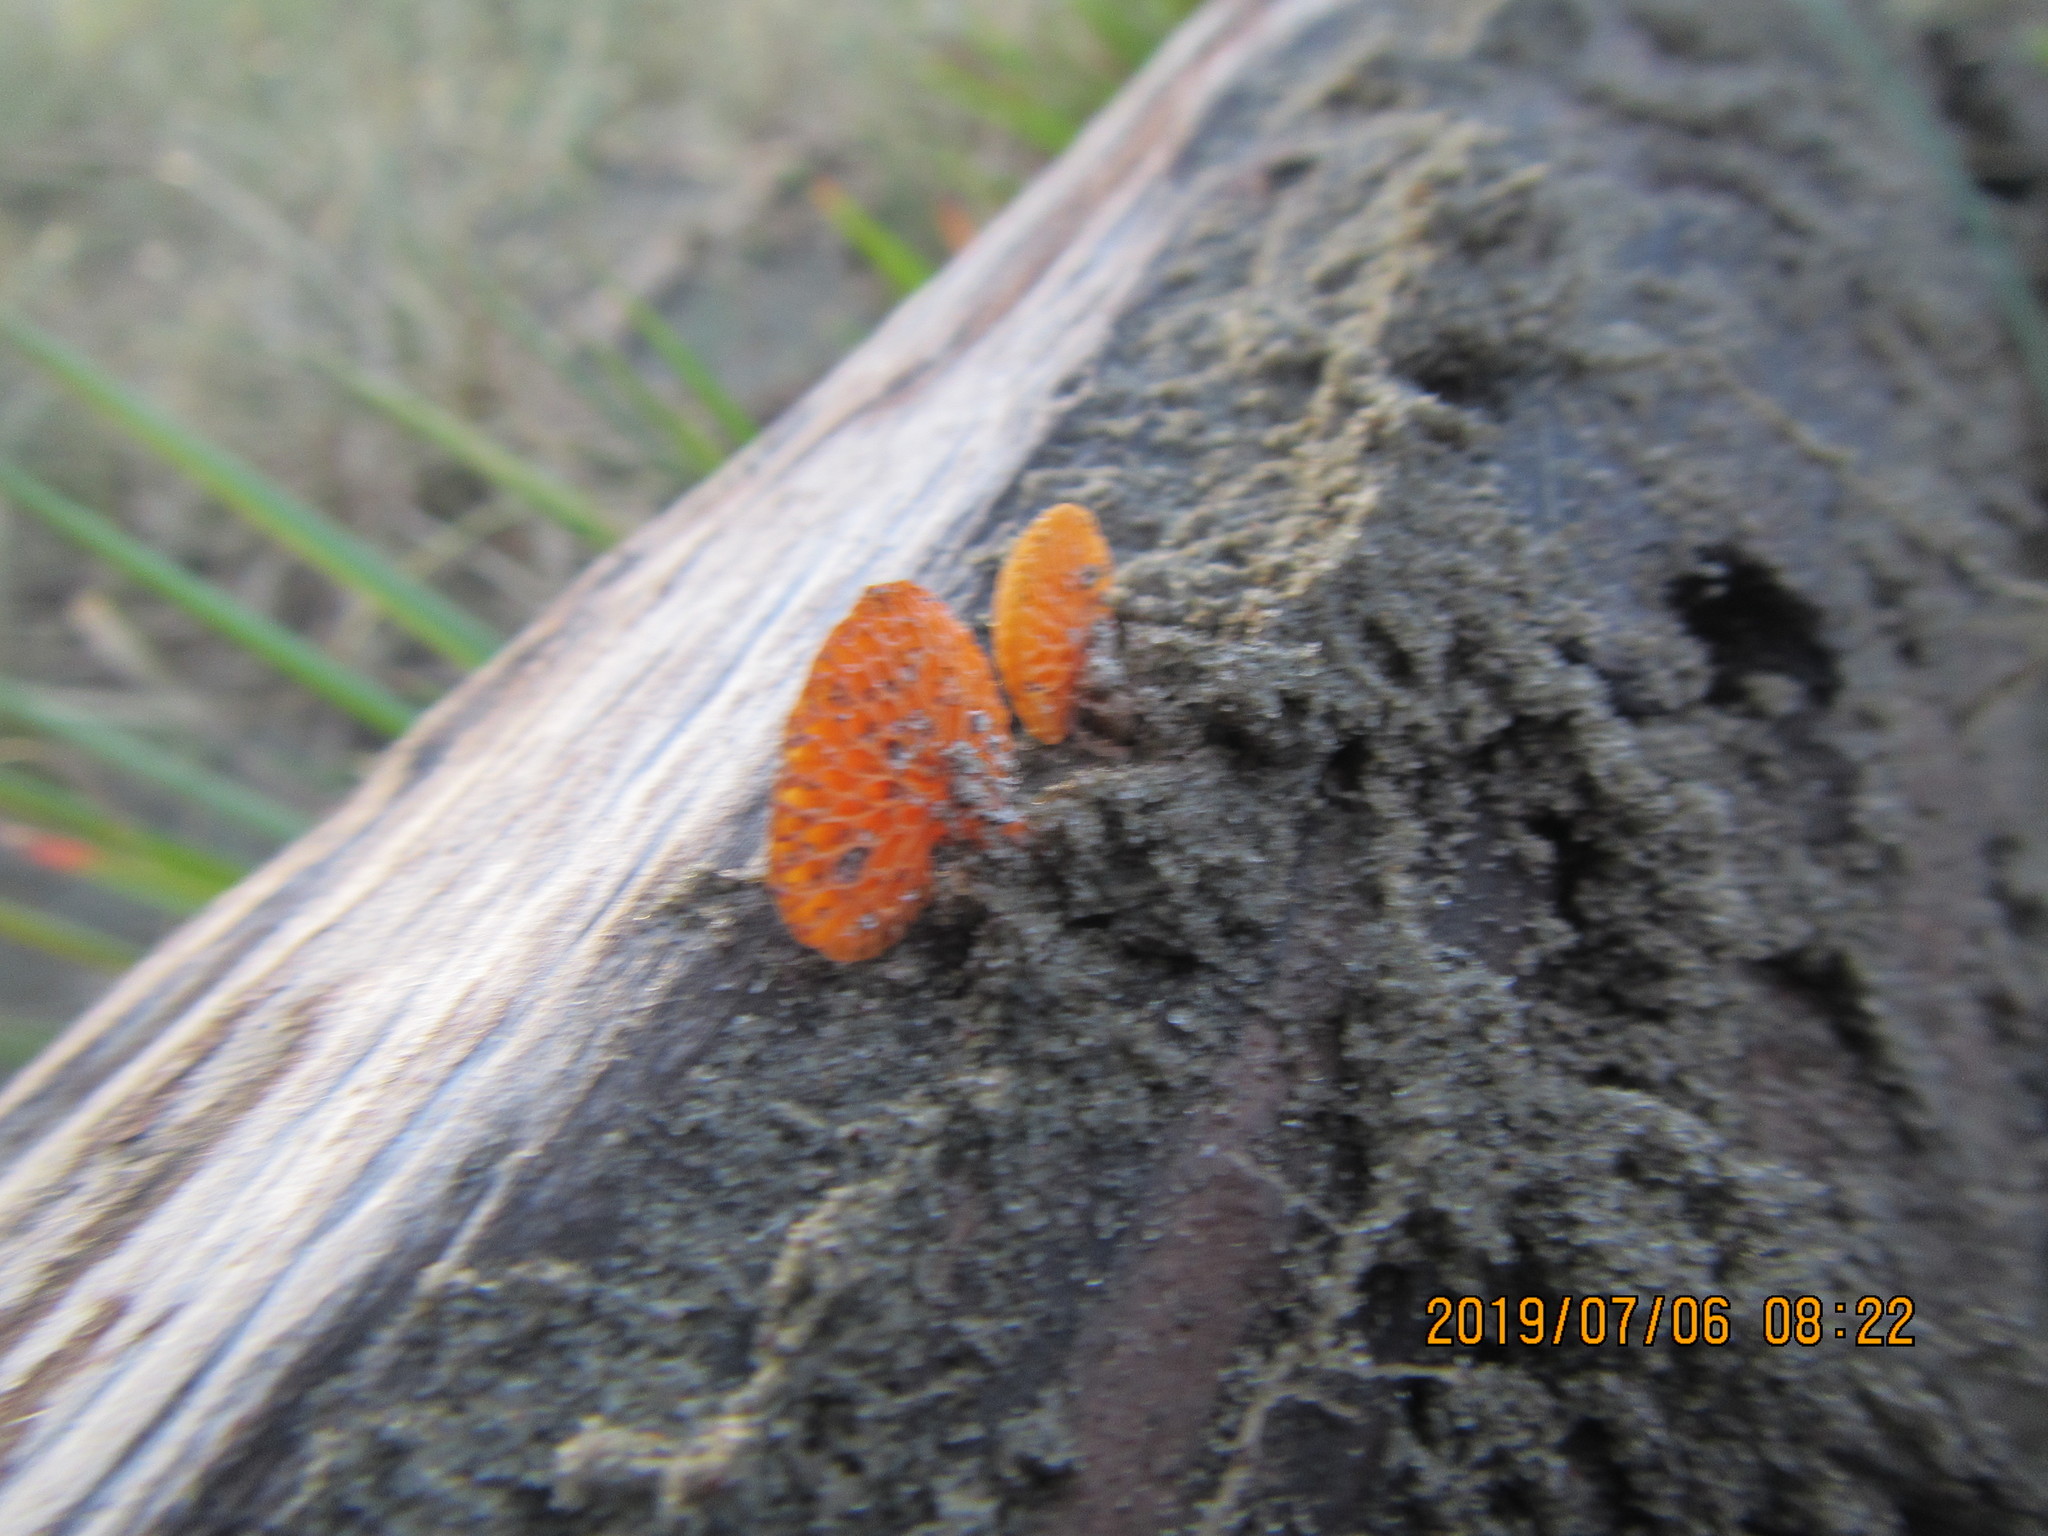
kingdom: Fungi
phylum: Basidiomycota
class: Agaricomycetes
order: Agaricales
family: Mycenaceae
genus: Favolaschia
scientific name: Favolaschia claudopus
